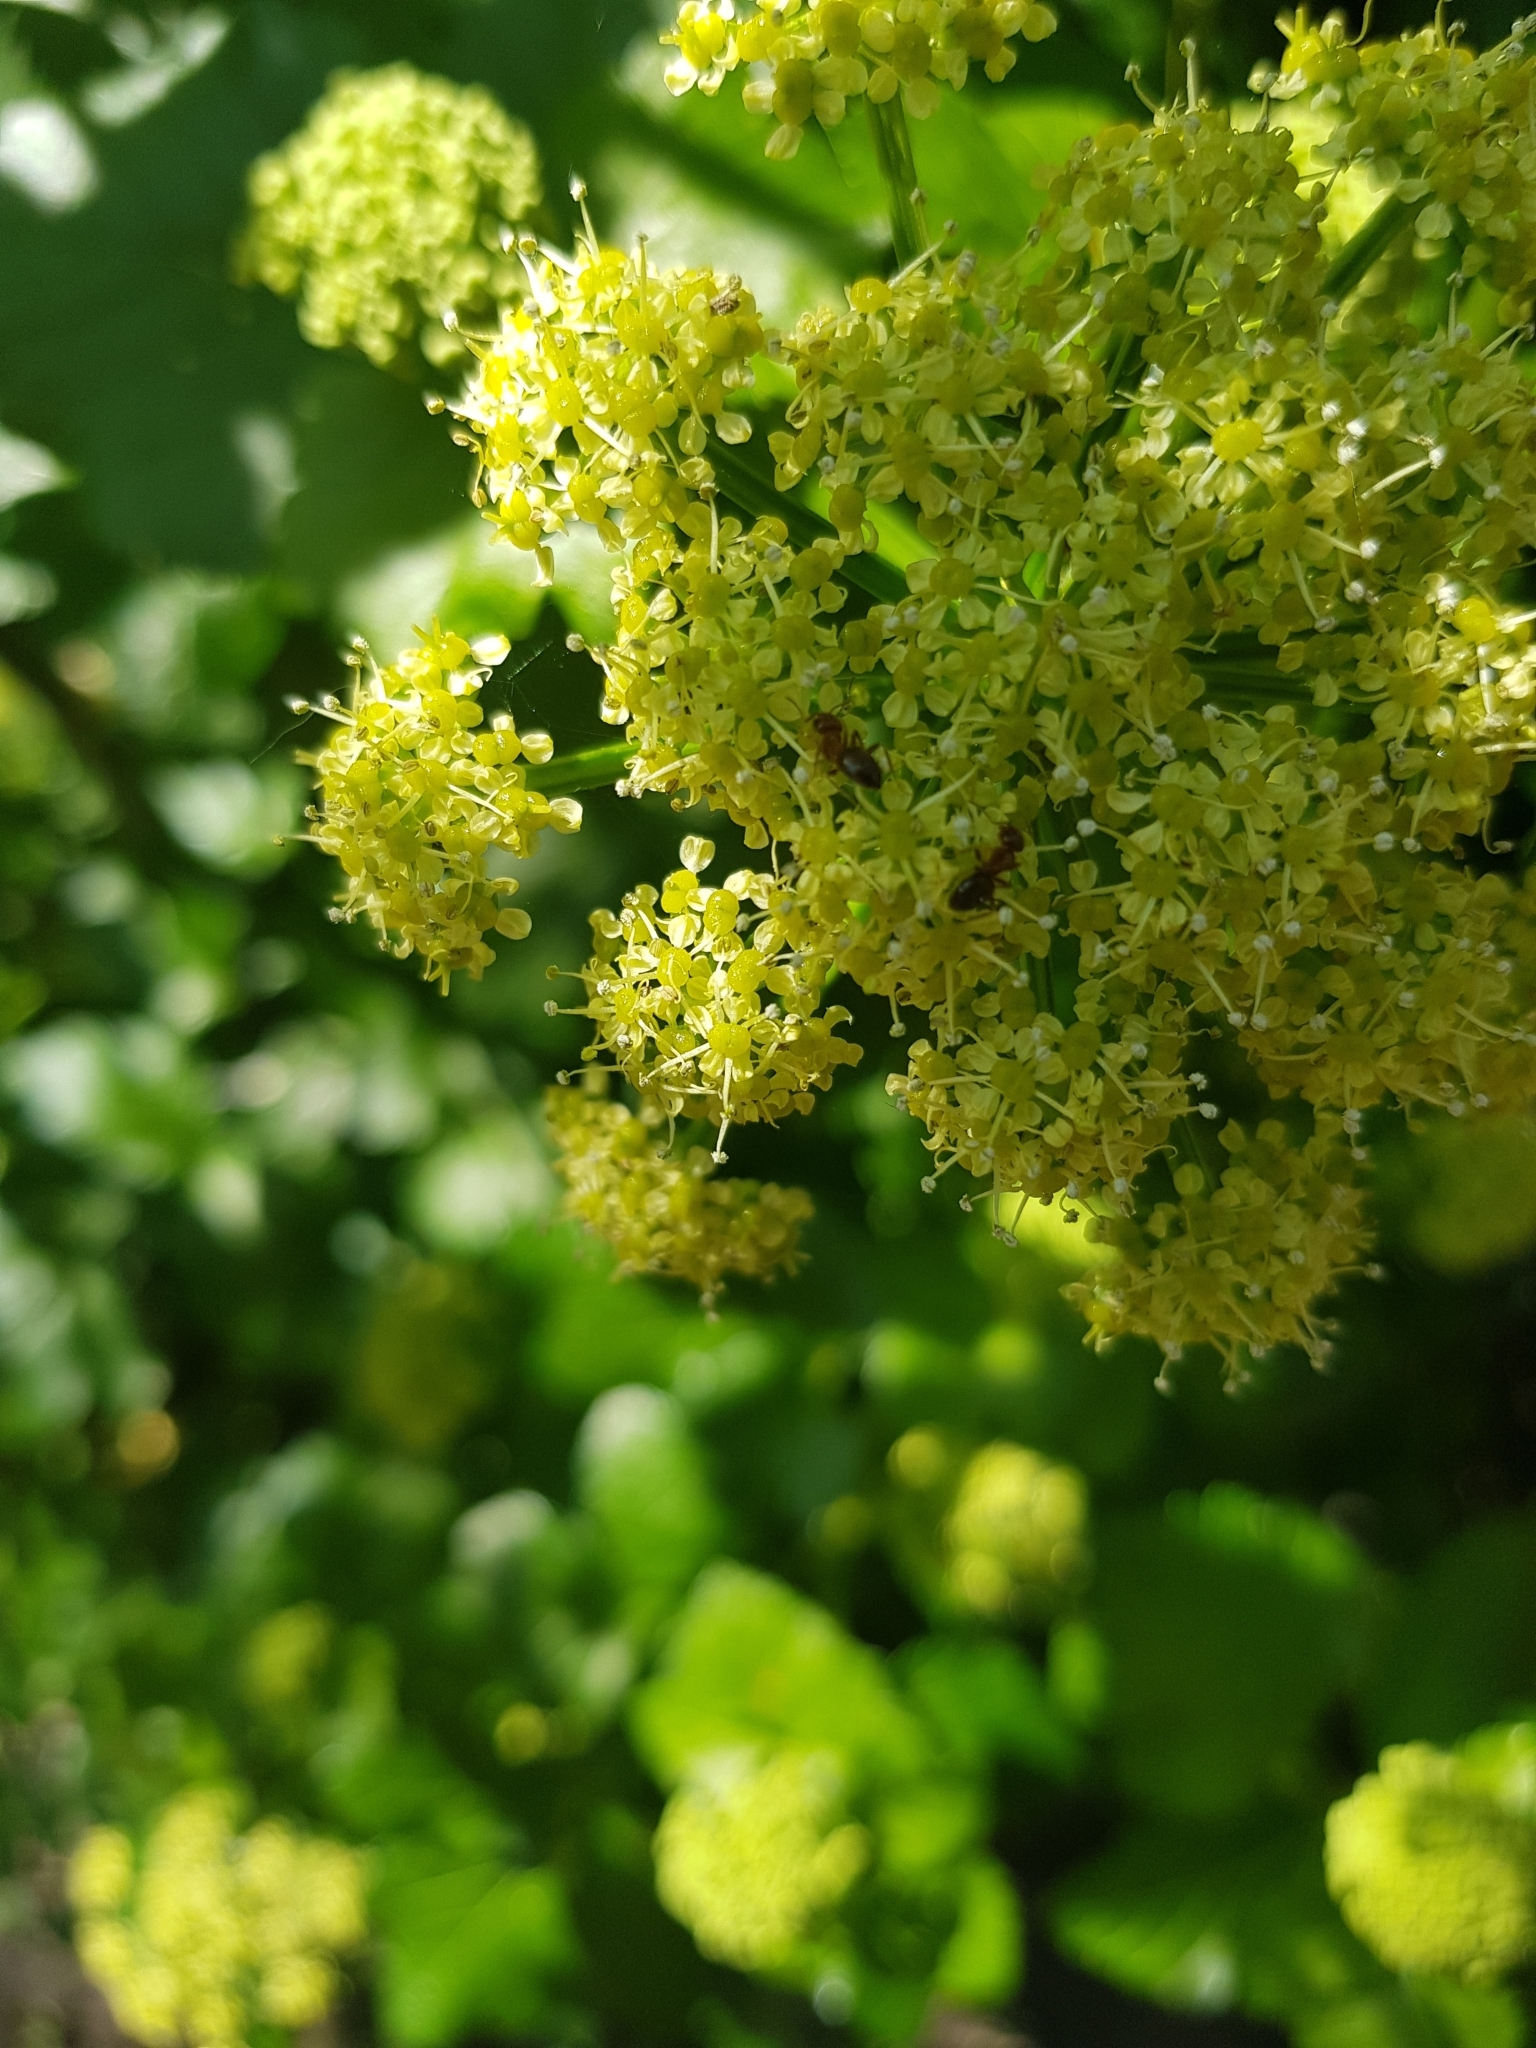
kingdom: Plantae
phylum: Tracheophyta
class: Magnoliopsida
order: Apiales
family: Apiaceae
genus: Smyrnium
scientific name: Smyrnium olusatrum
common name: Alexanders
